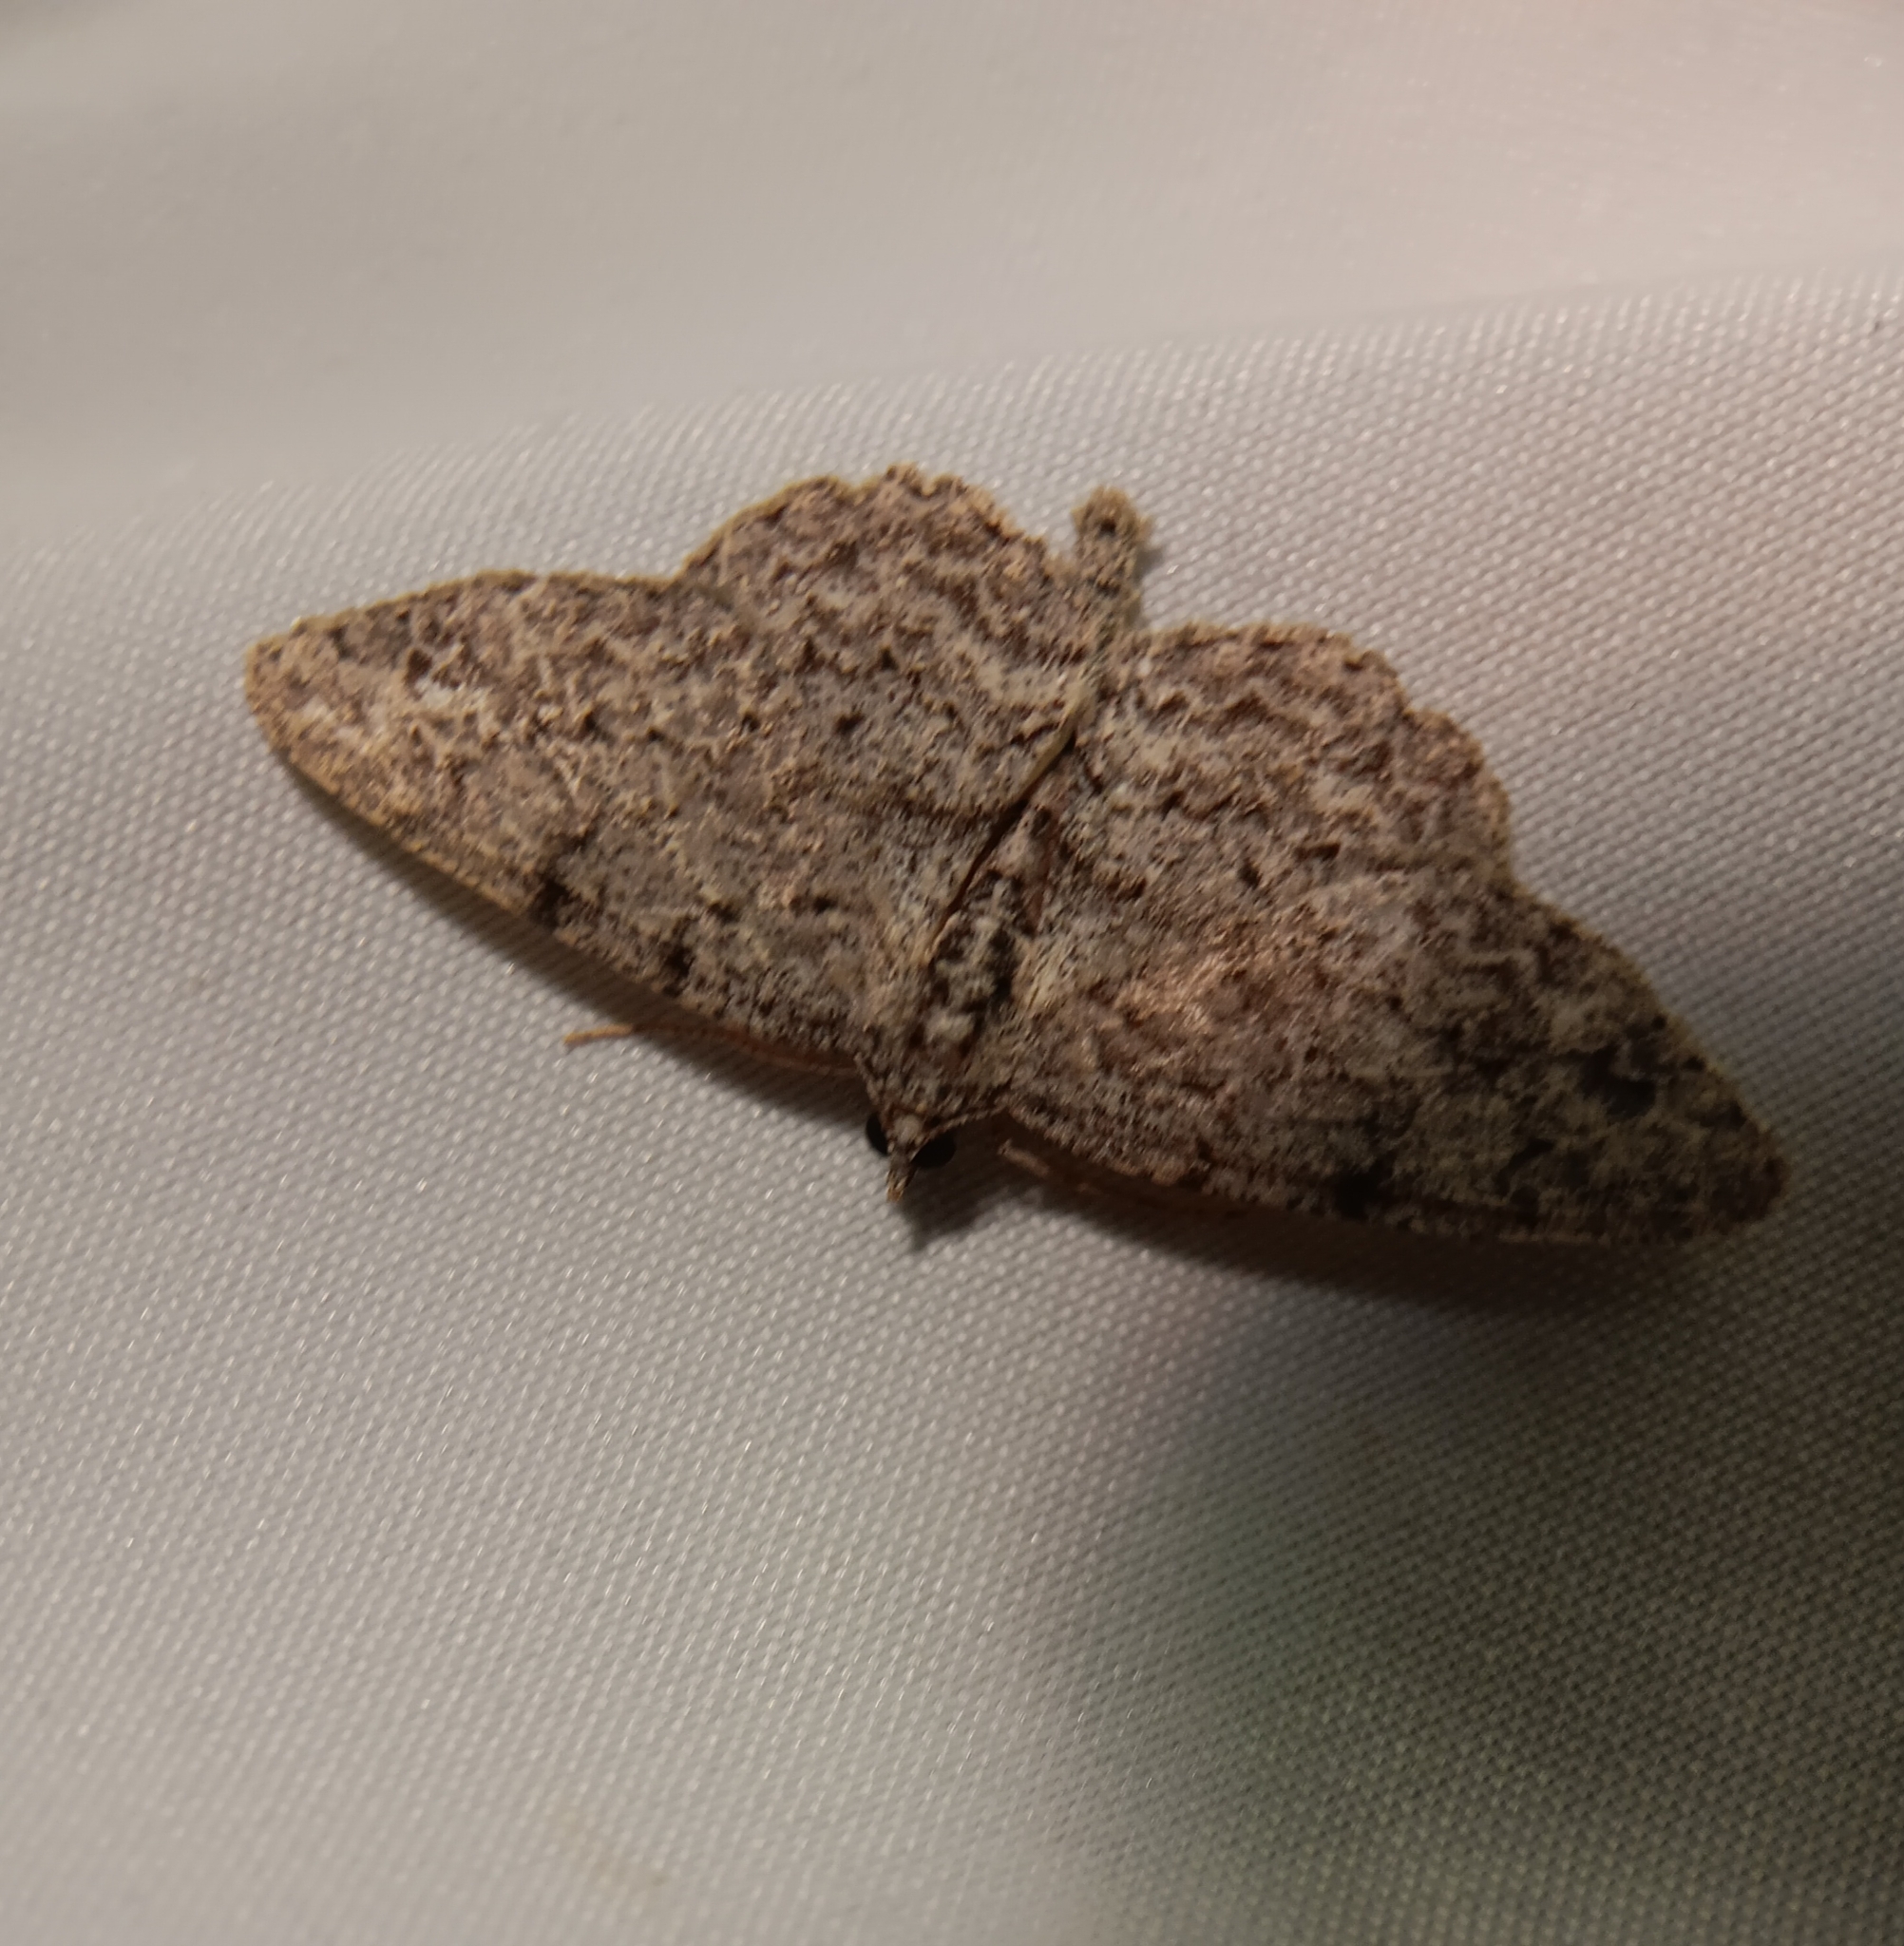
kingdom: Animalia
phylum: Arthropoda
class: Insecta
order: Lepidoptera
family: Geometridae
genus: Protoboarmia
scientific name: Protoboarmia porcelaria
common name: Porcelain gray
